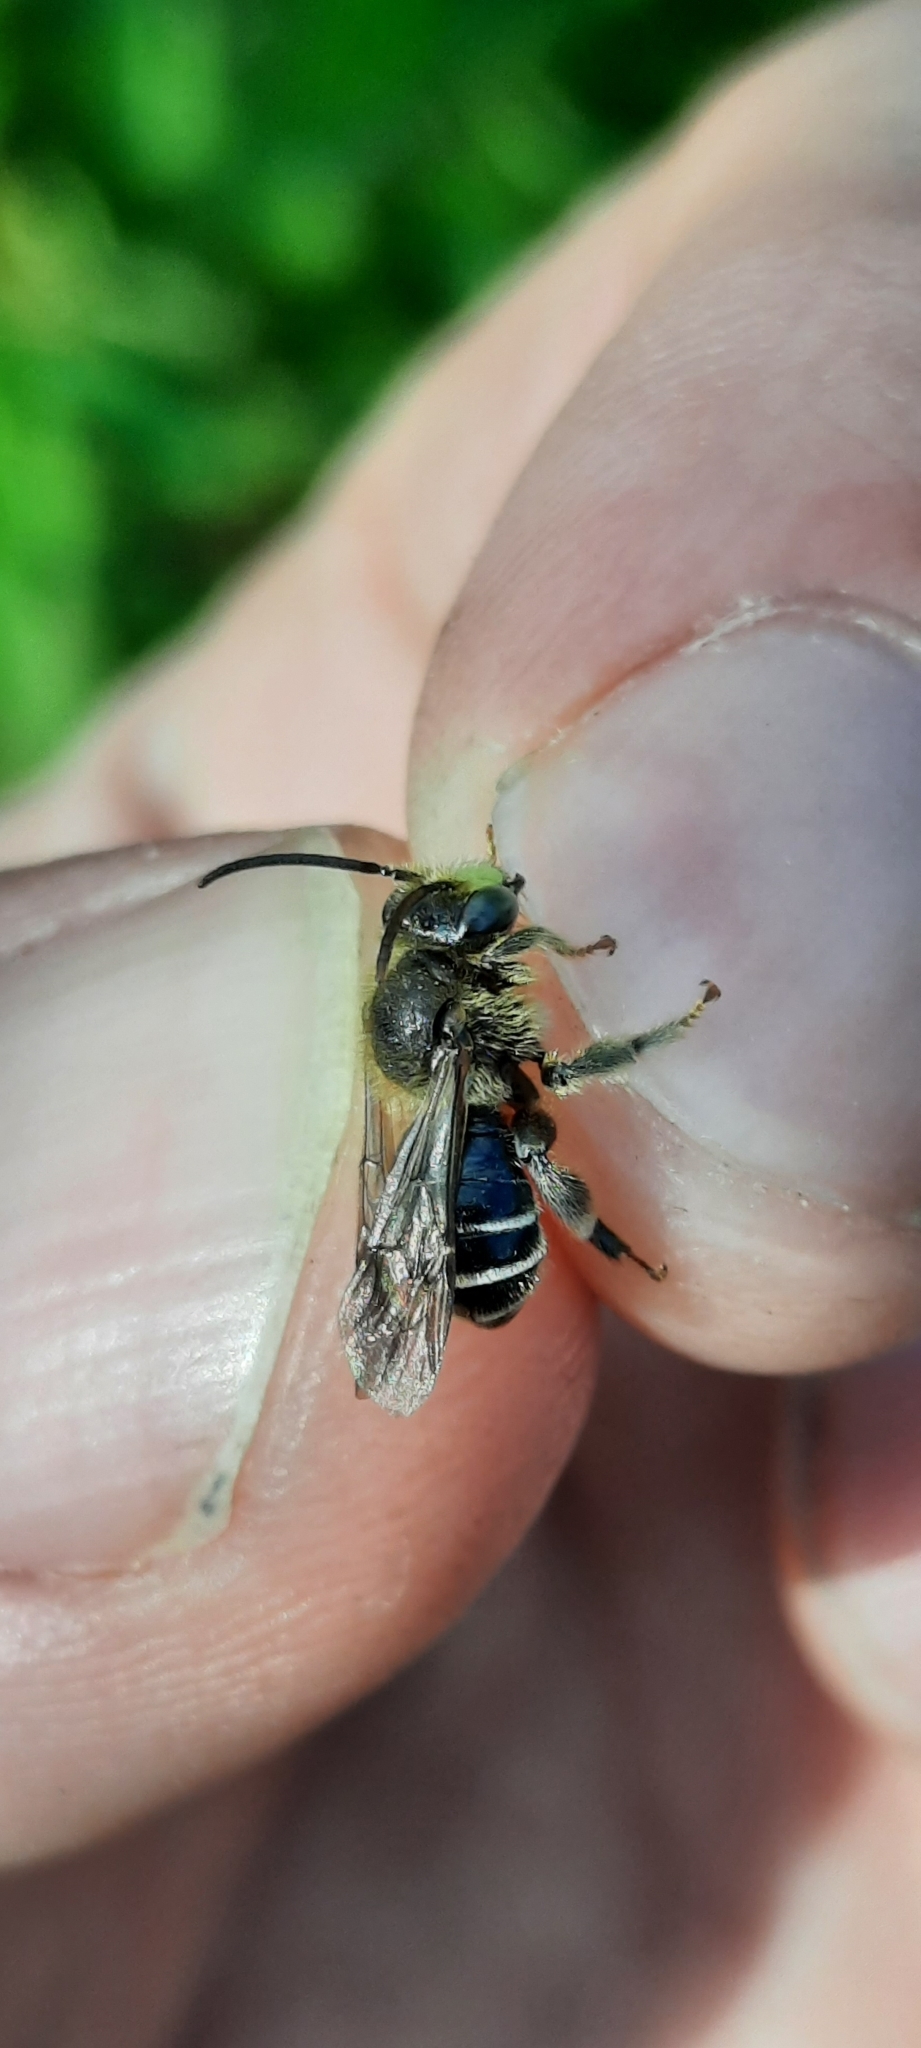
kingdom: Animalia
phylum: Arthropoda
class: Insecta
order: Hymenoptera
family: Melittidae
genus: Macropis
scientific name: Macropis europaea
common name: Yellow loosestrife bee
